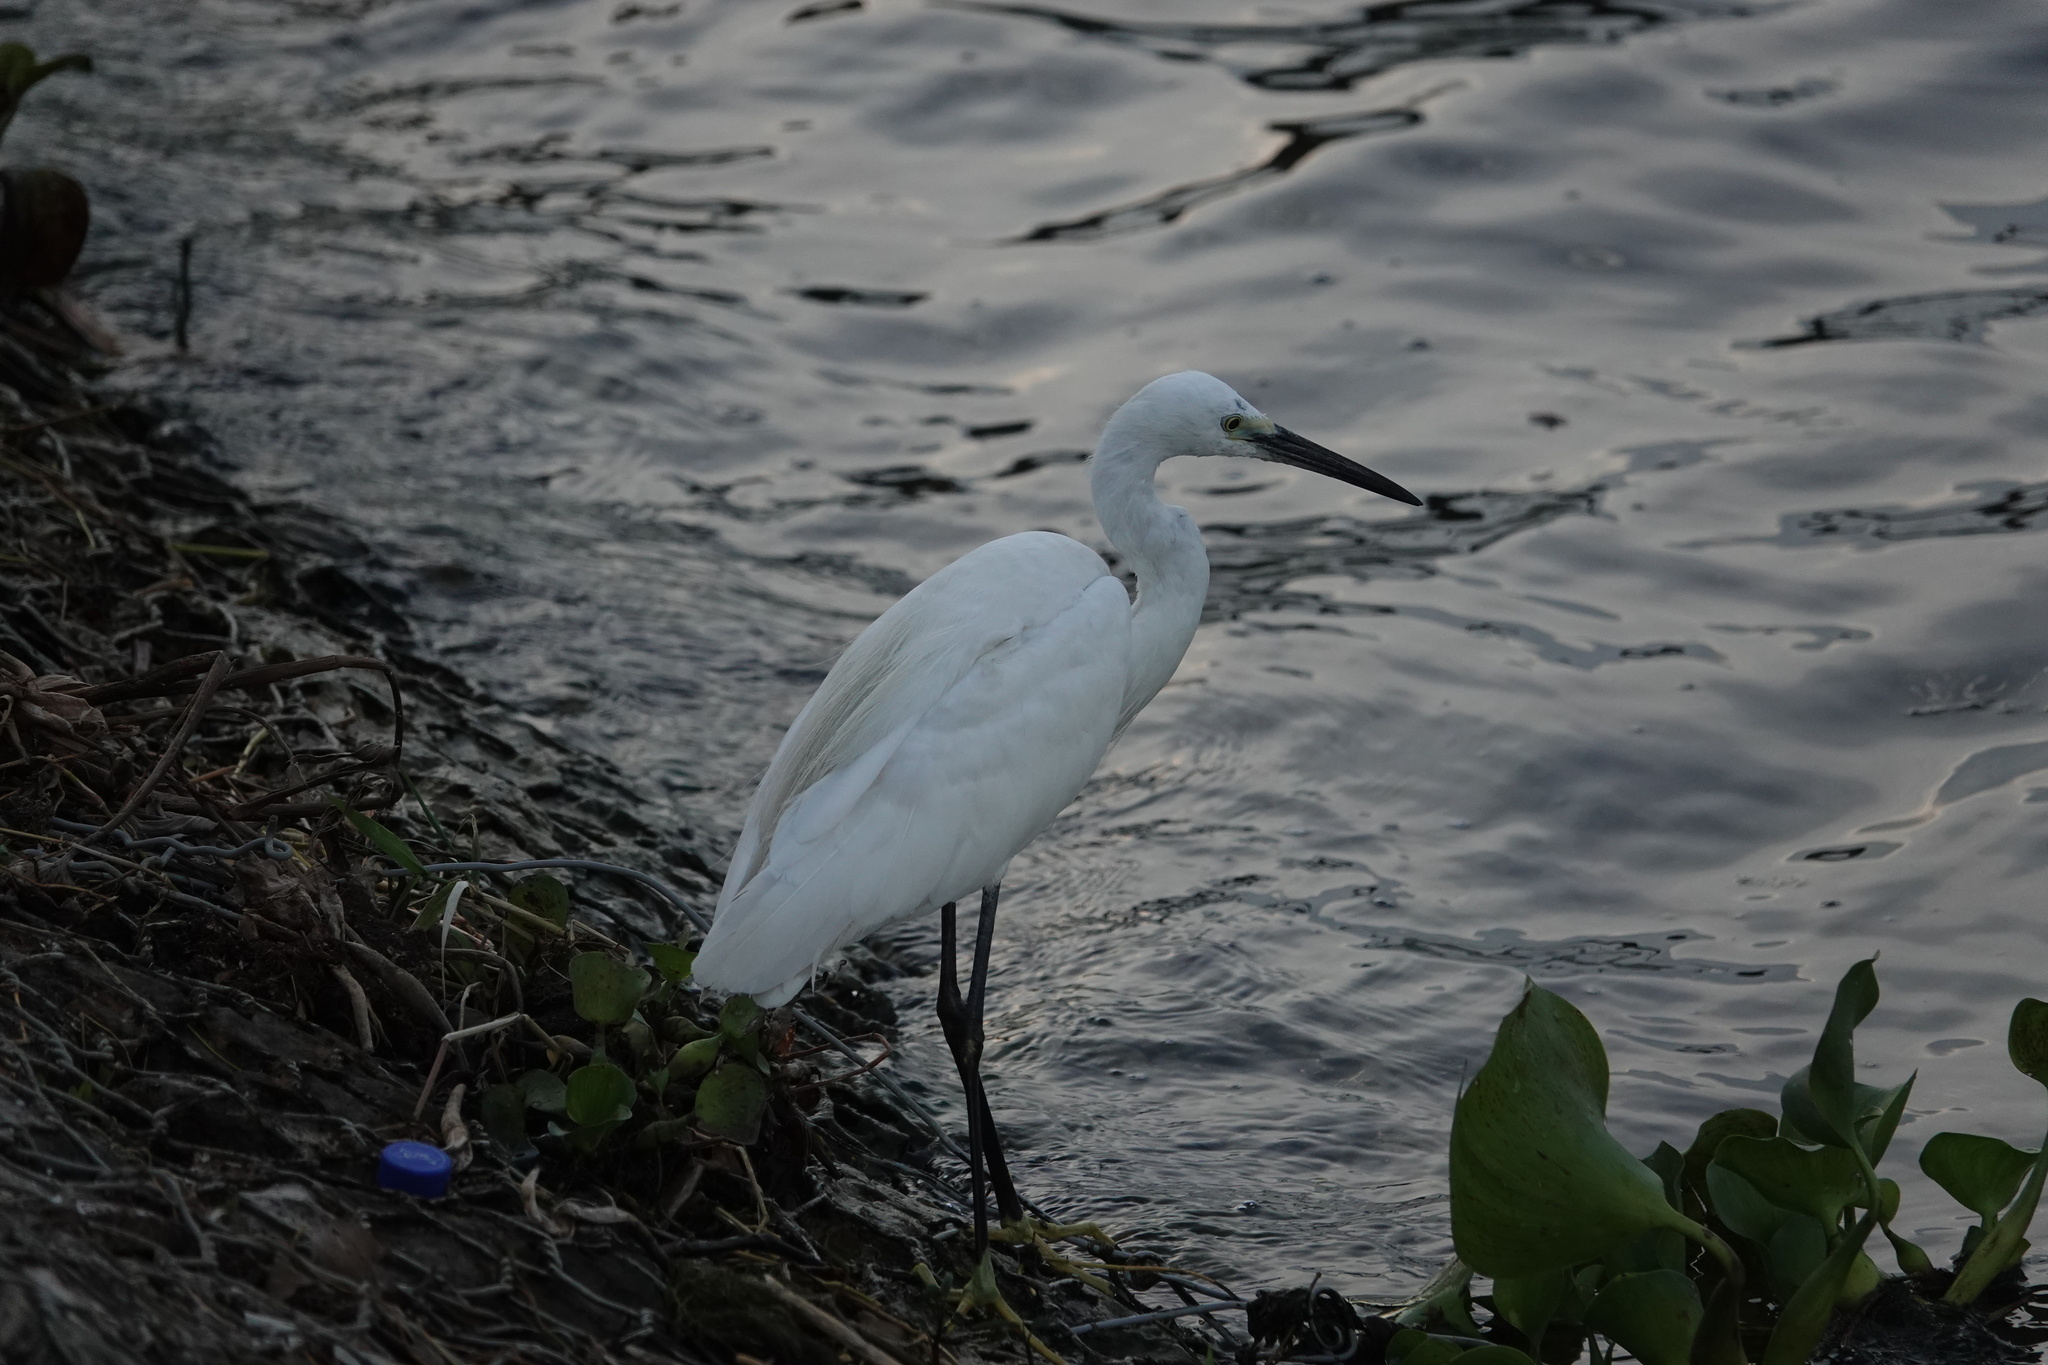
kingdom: Animalia
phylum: Chordata
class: Aves
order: Pelecaniformes
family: Ardeidae
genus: Egretta
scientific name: Egretta garzetta
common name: Little egret
